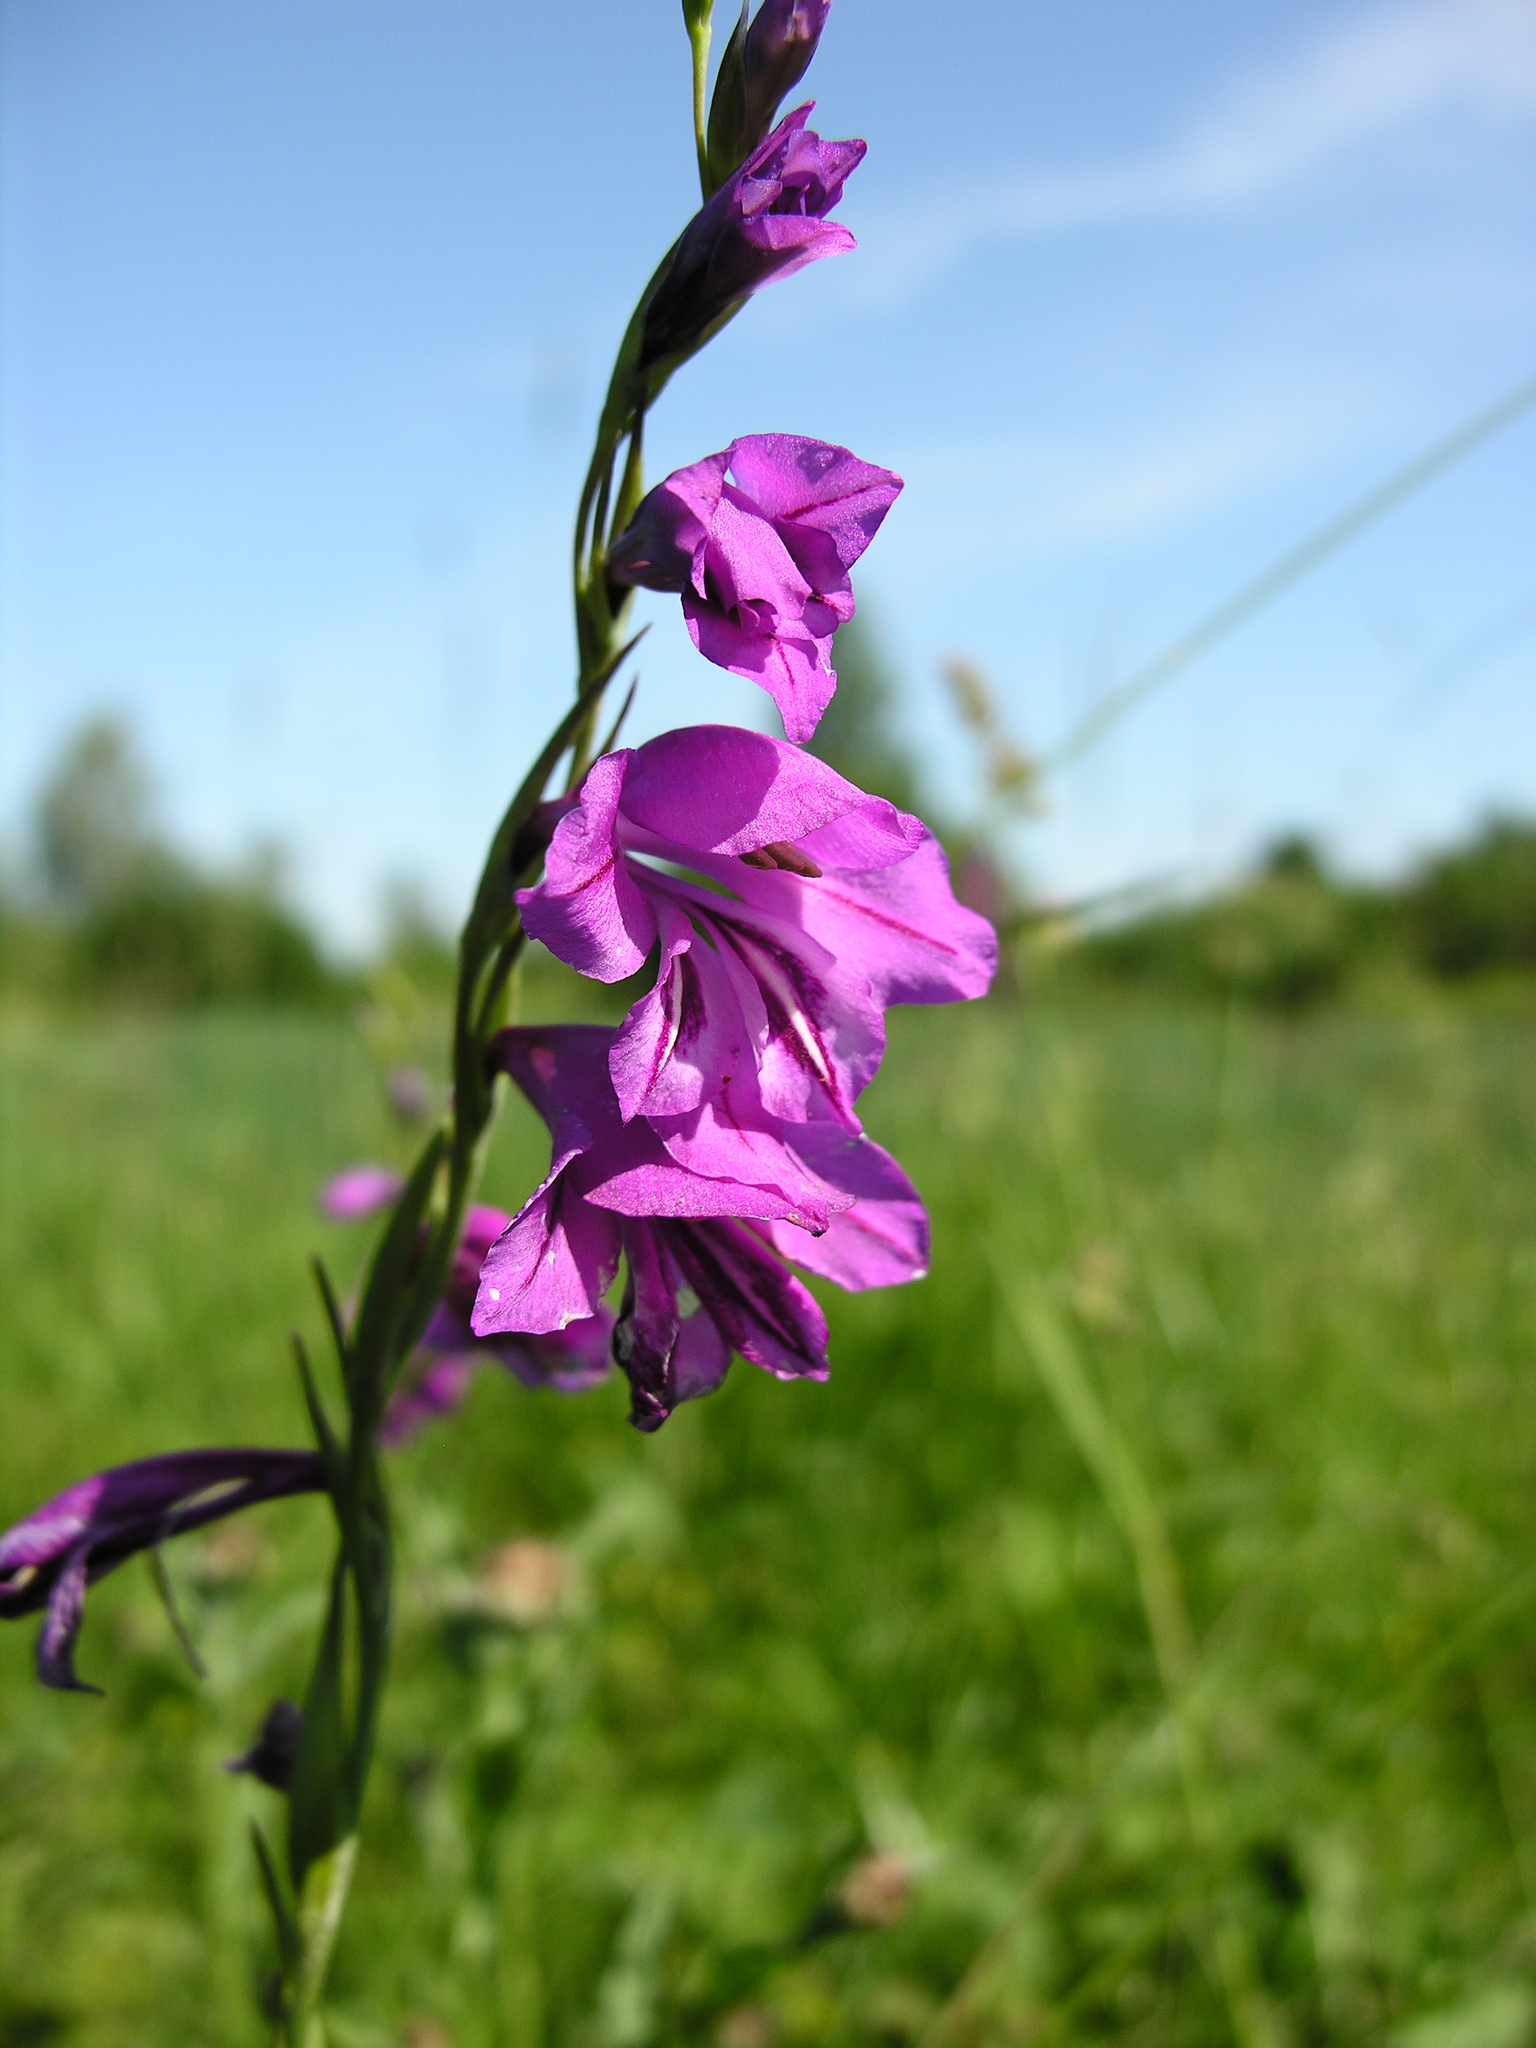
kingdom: Plantae
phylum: Tracheophyta
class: Liliopsida
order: Asparagales
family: Iridaceae
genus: Gladiolus
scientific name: Gladiolus imbricatus
